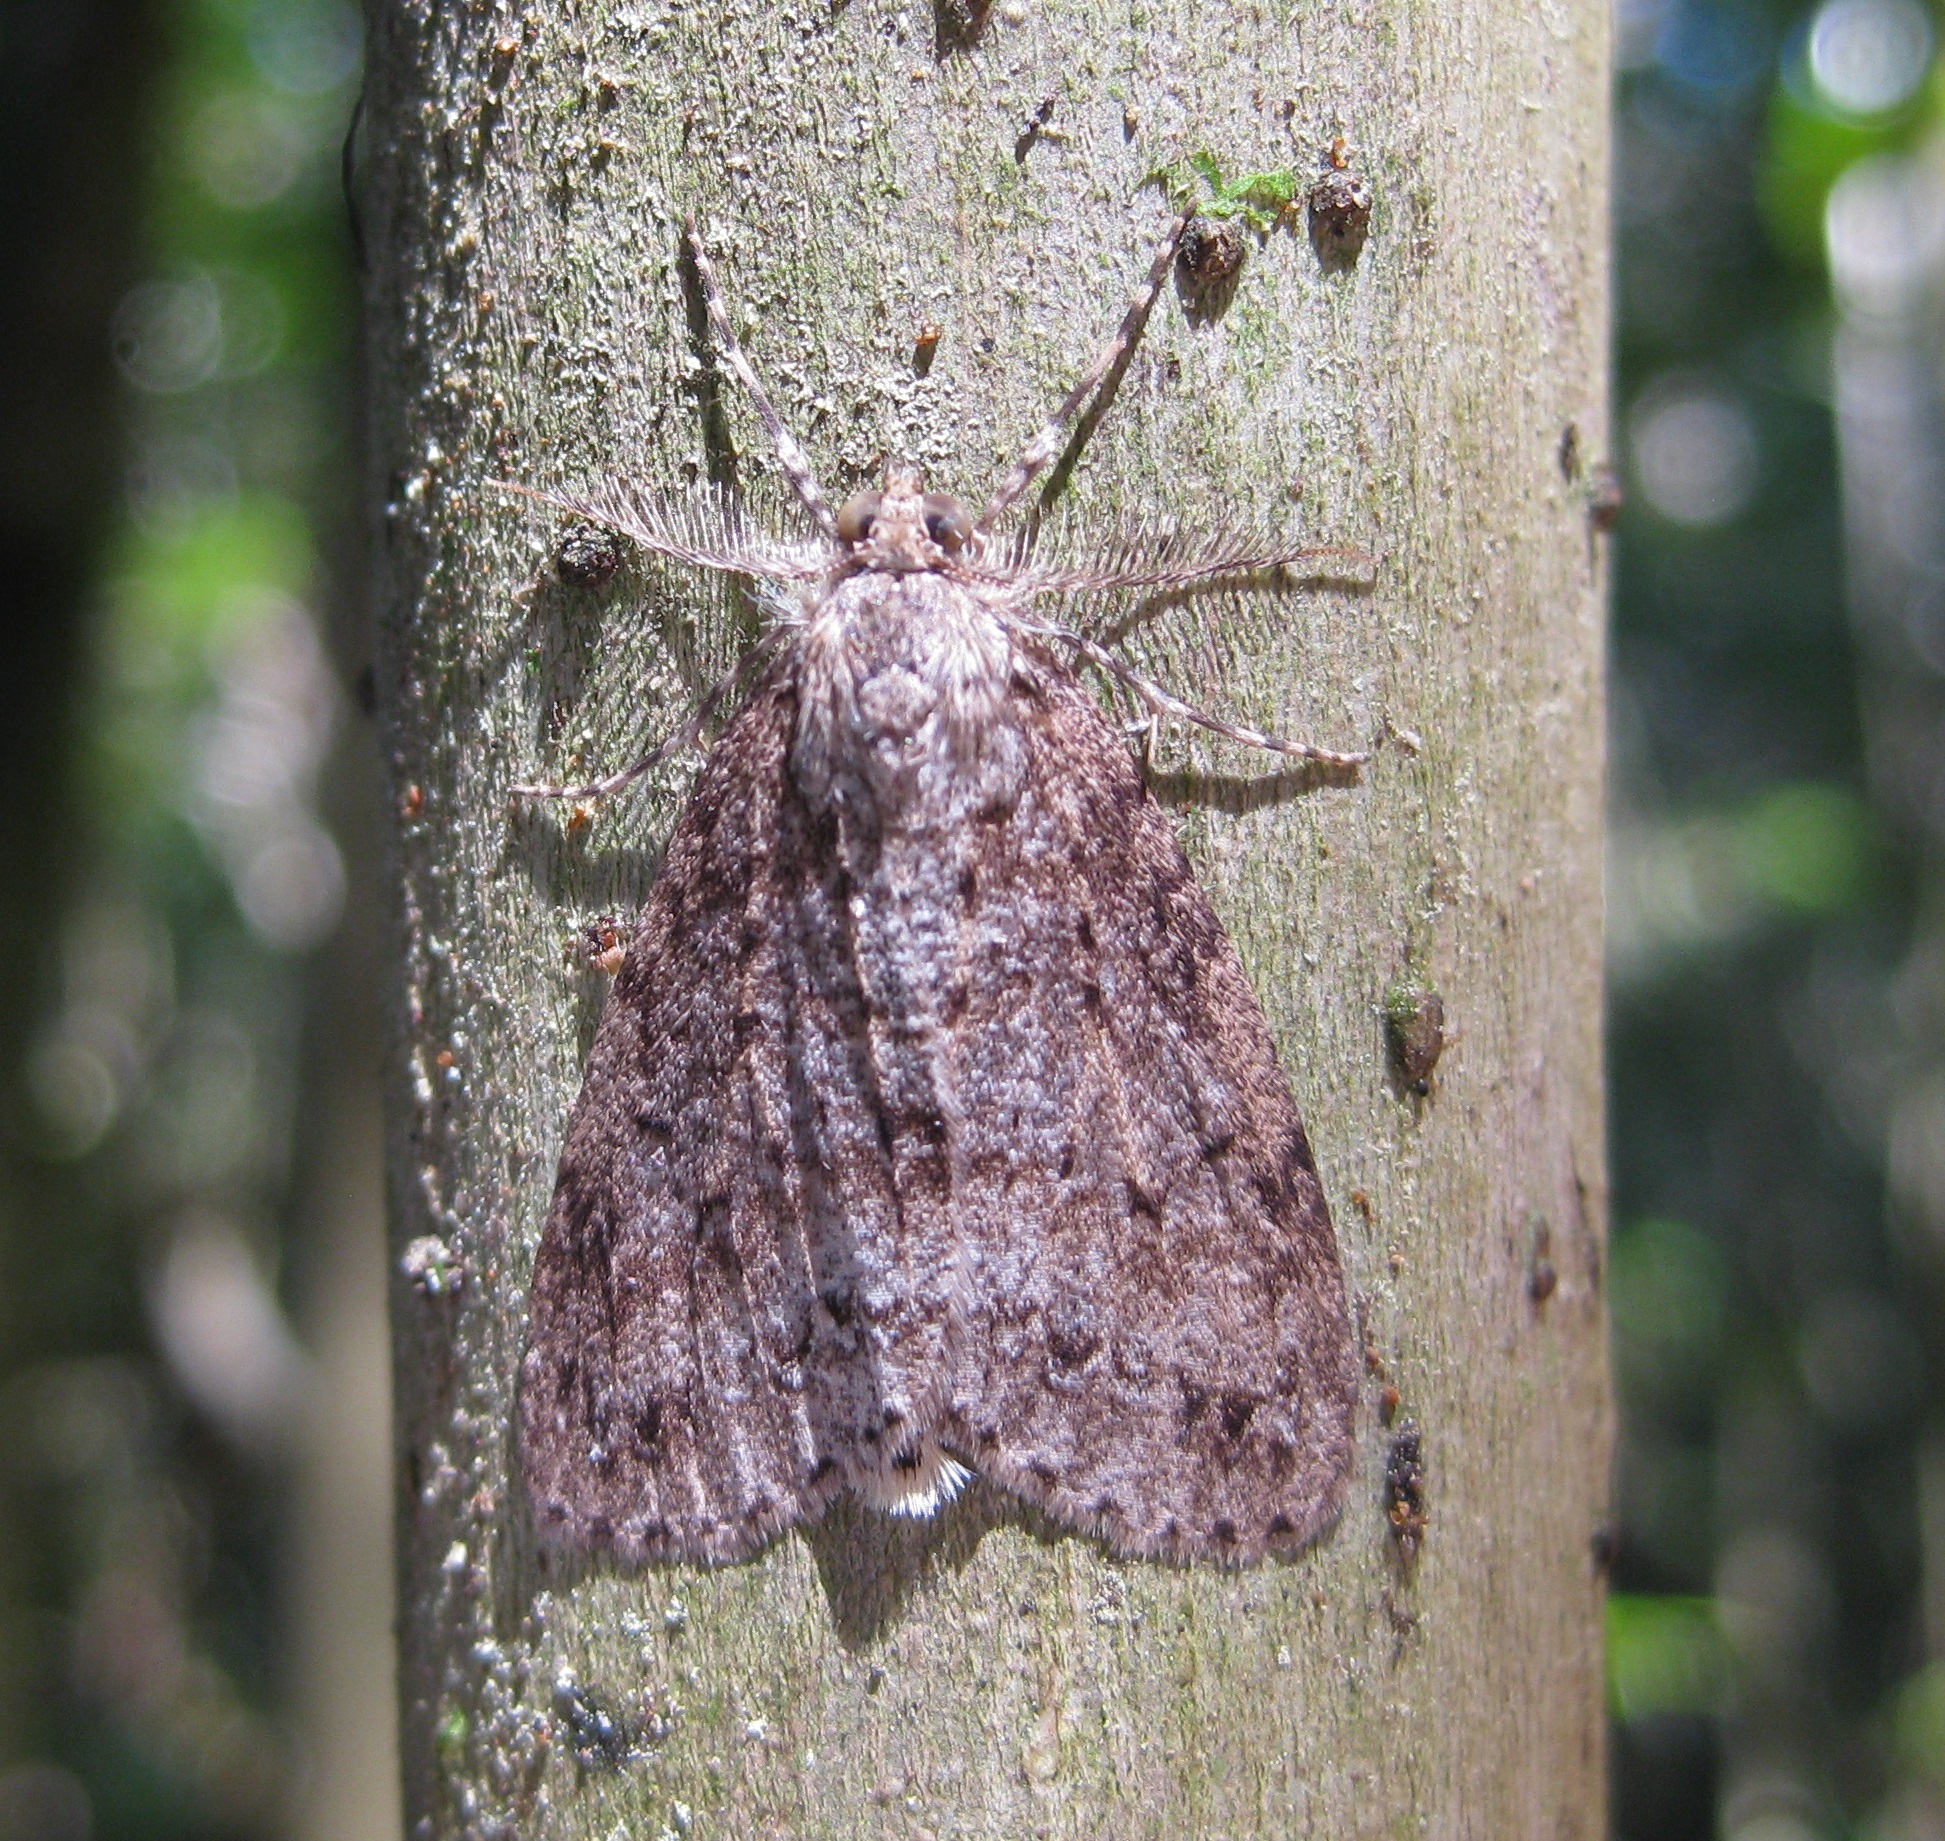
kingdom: Animalia
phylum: Arthropoda
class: Insecta
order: Lepidoptera
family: Geometridae
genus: Pseudocoremia
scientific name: Pseudocoremia fenerata
